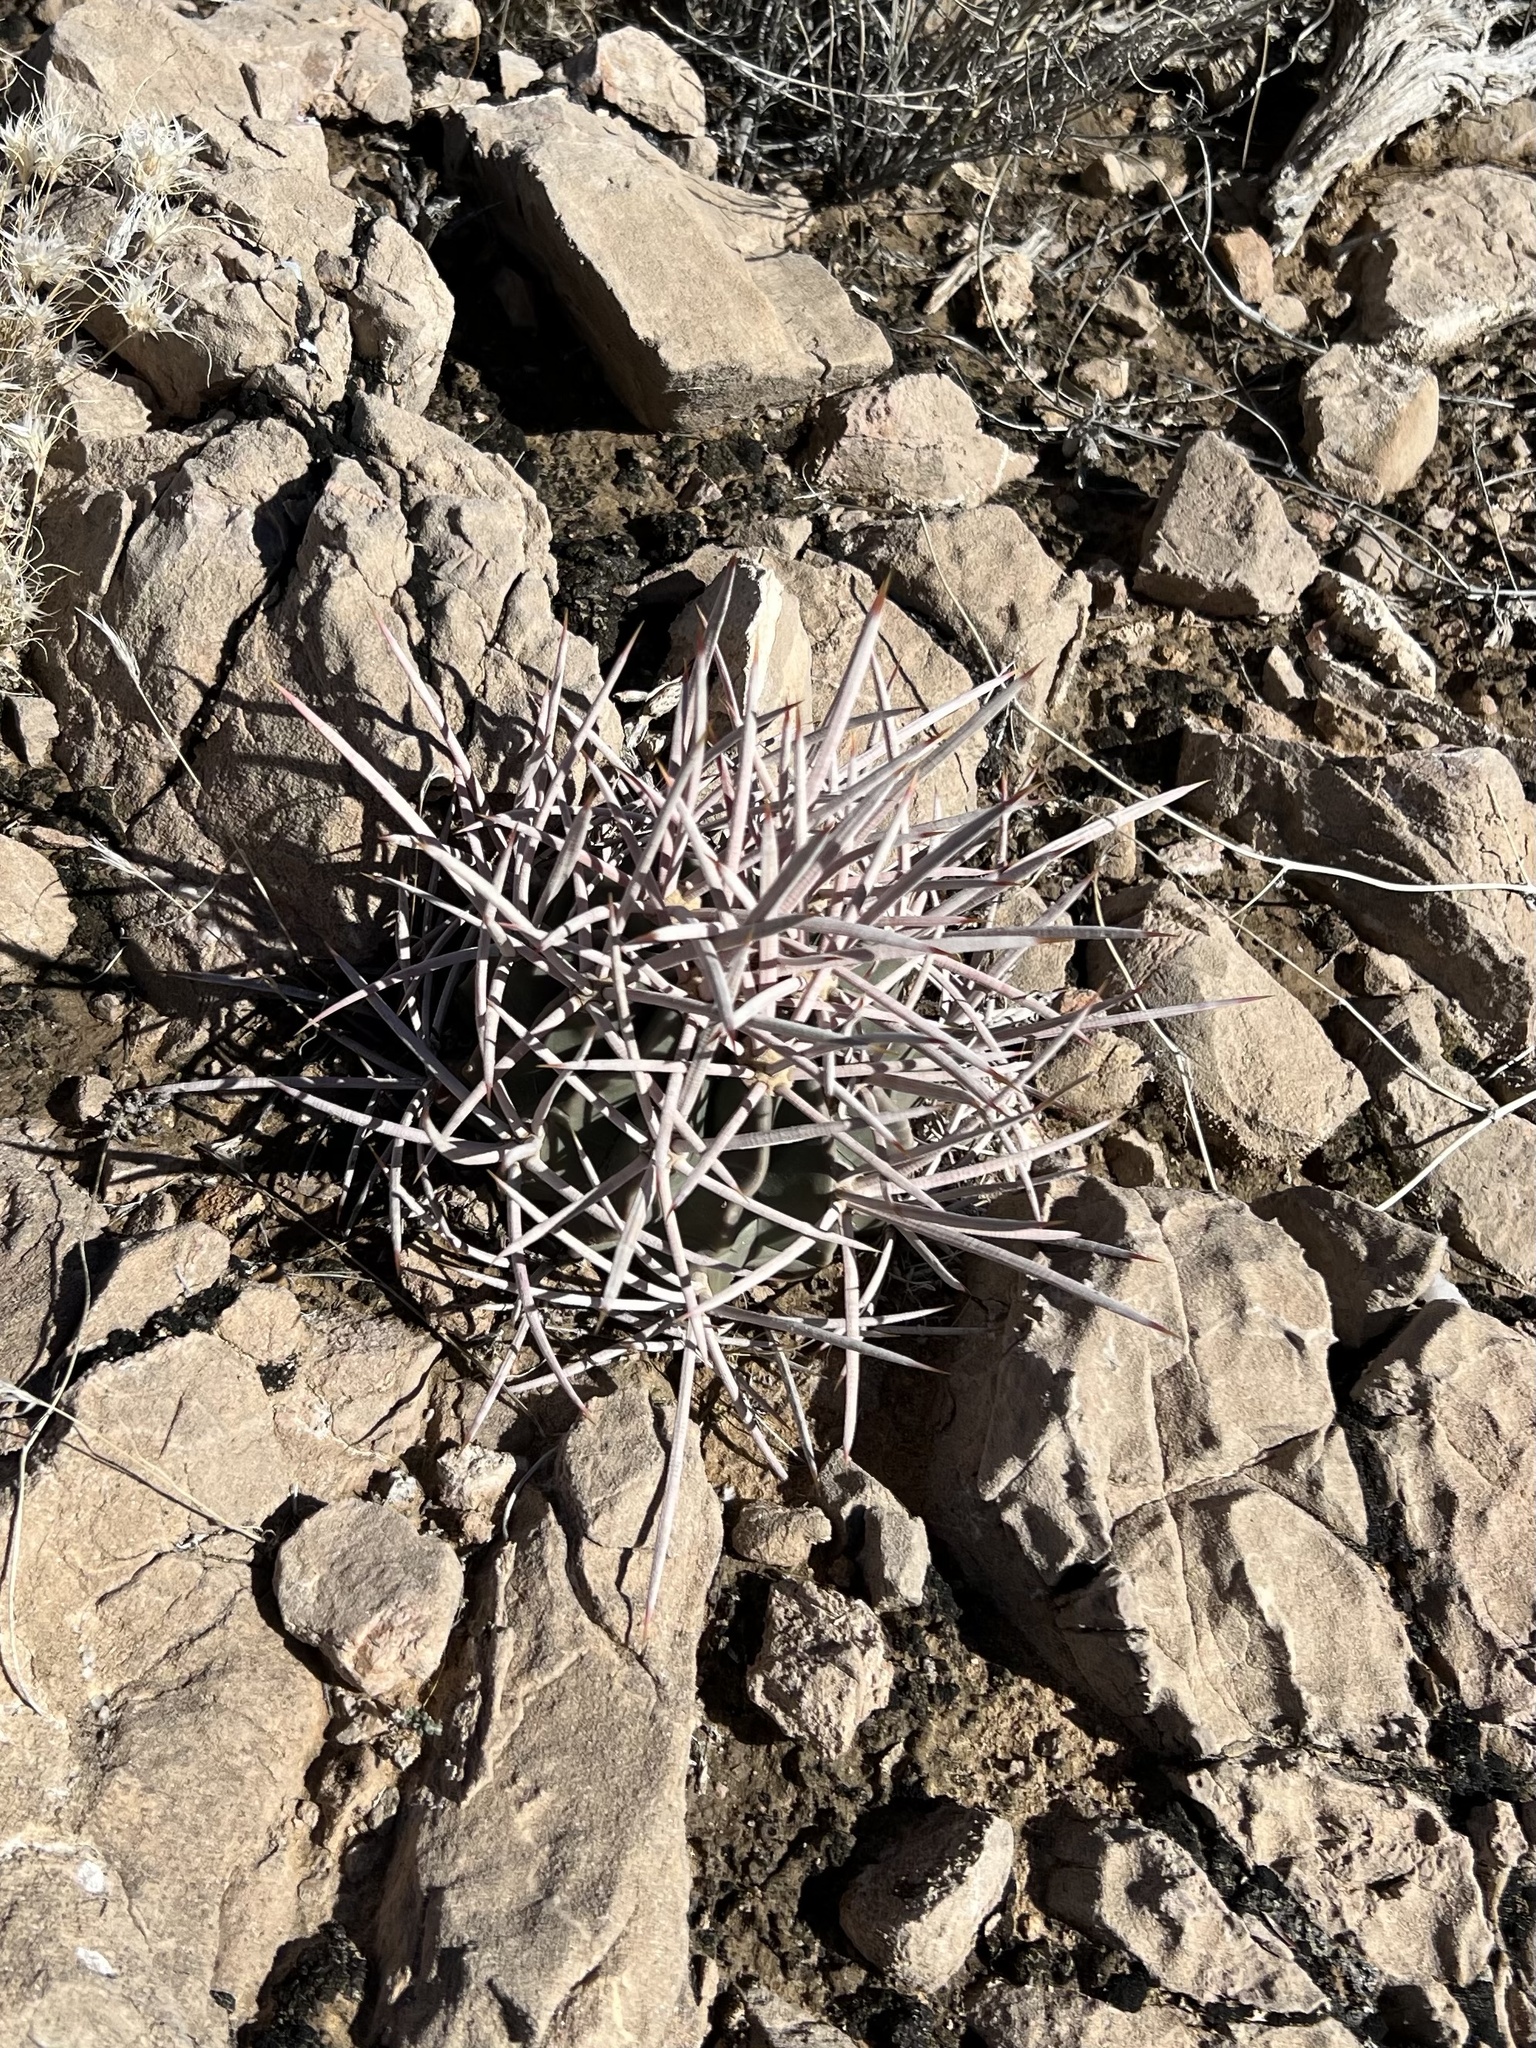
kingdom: Plantae
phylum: Tracheophyta
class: Magnoliopsida
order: Caryophyllales
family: Cactaceae
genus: Echinocactus
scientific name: Echinocactus polycephalus
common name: Cottontop cactus
